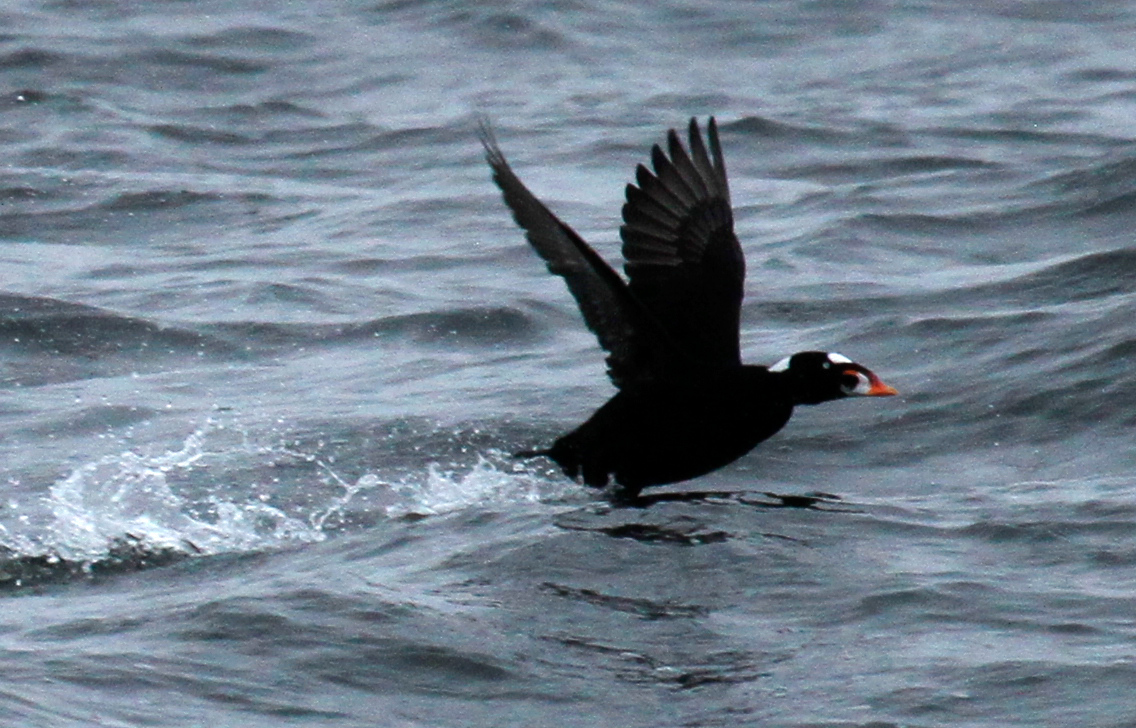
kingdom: Animalia
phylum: Chordata
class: Aves
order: Anseriformes
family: Anatidae
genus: Melanitta
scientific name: Melanitta perspicillata
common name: Surf scoter
